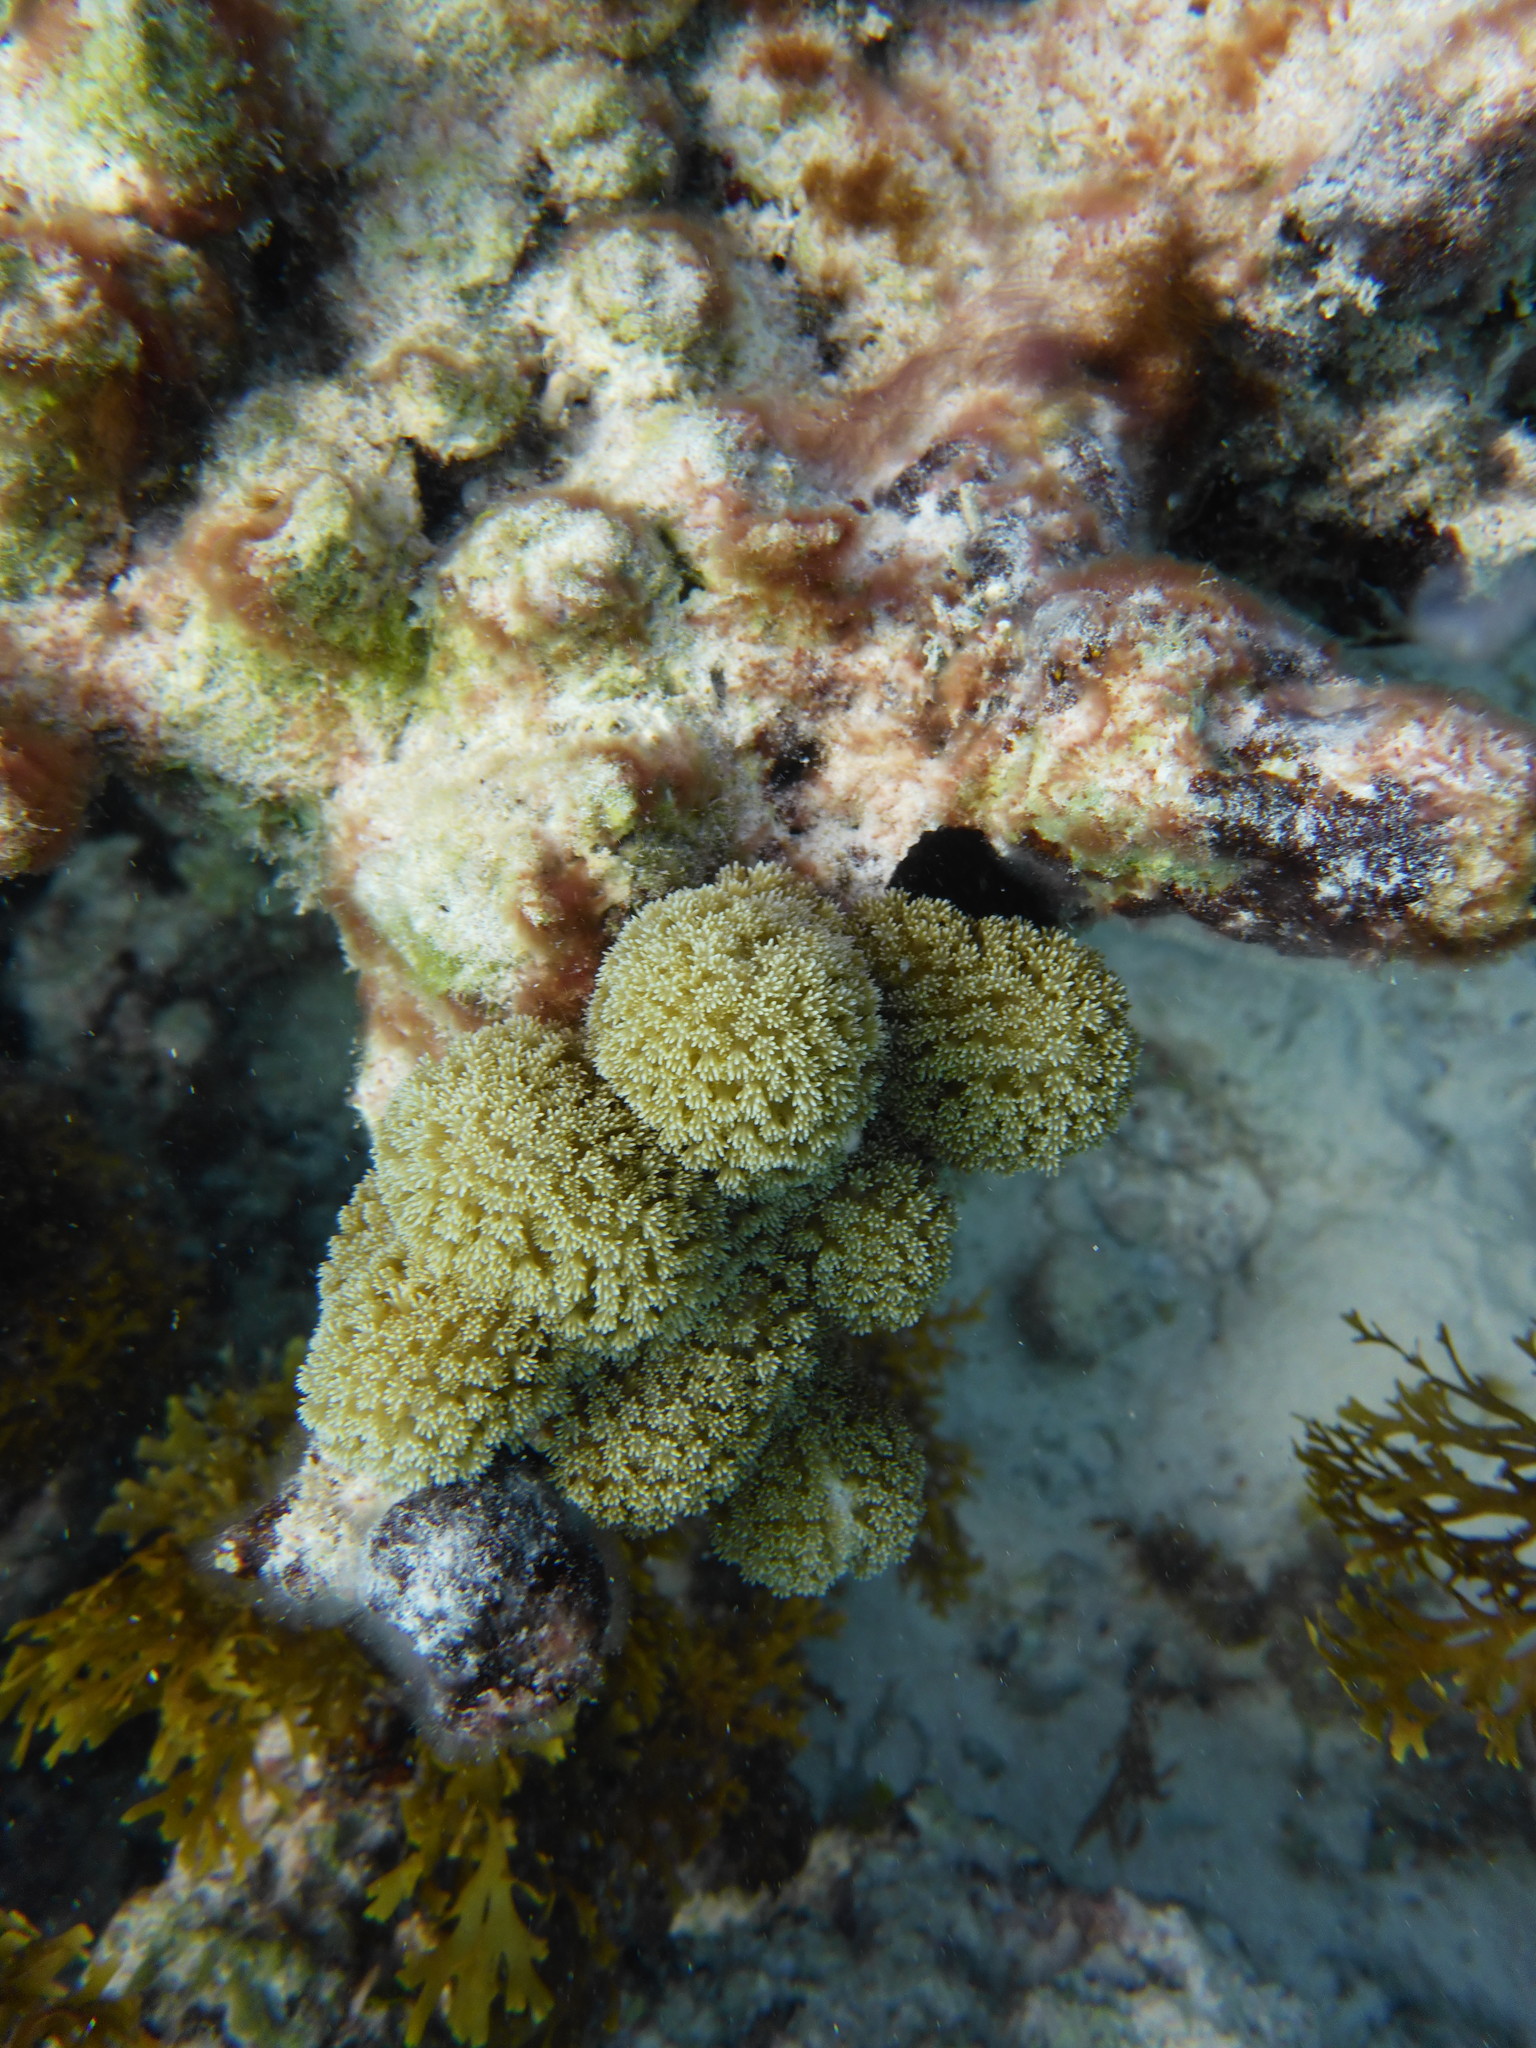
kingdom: Animalia
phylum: Cnidaria
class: Anthozoa
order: Scleractinia
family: Poritidae
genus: Porites
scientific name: Porites porites
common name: Finger coral
